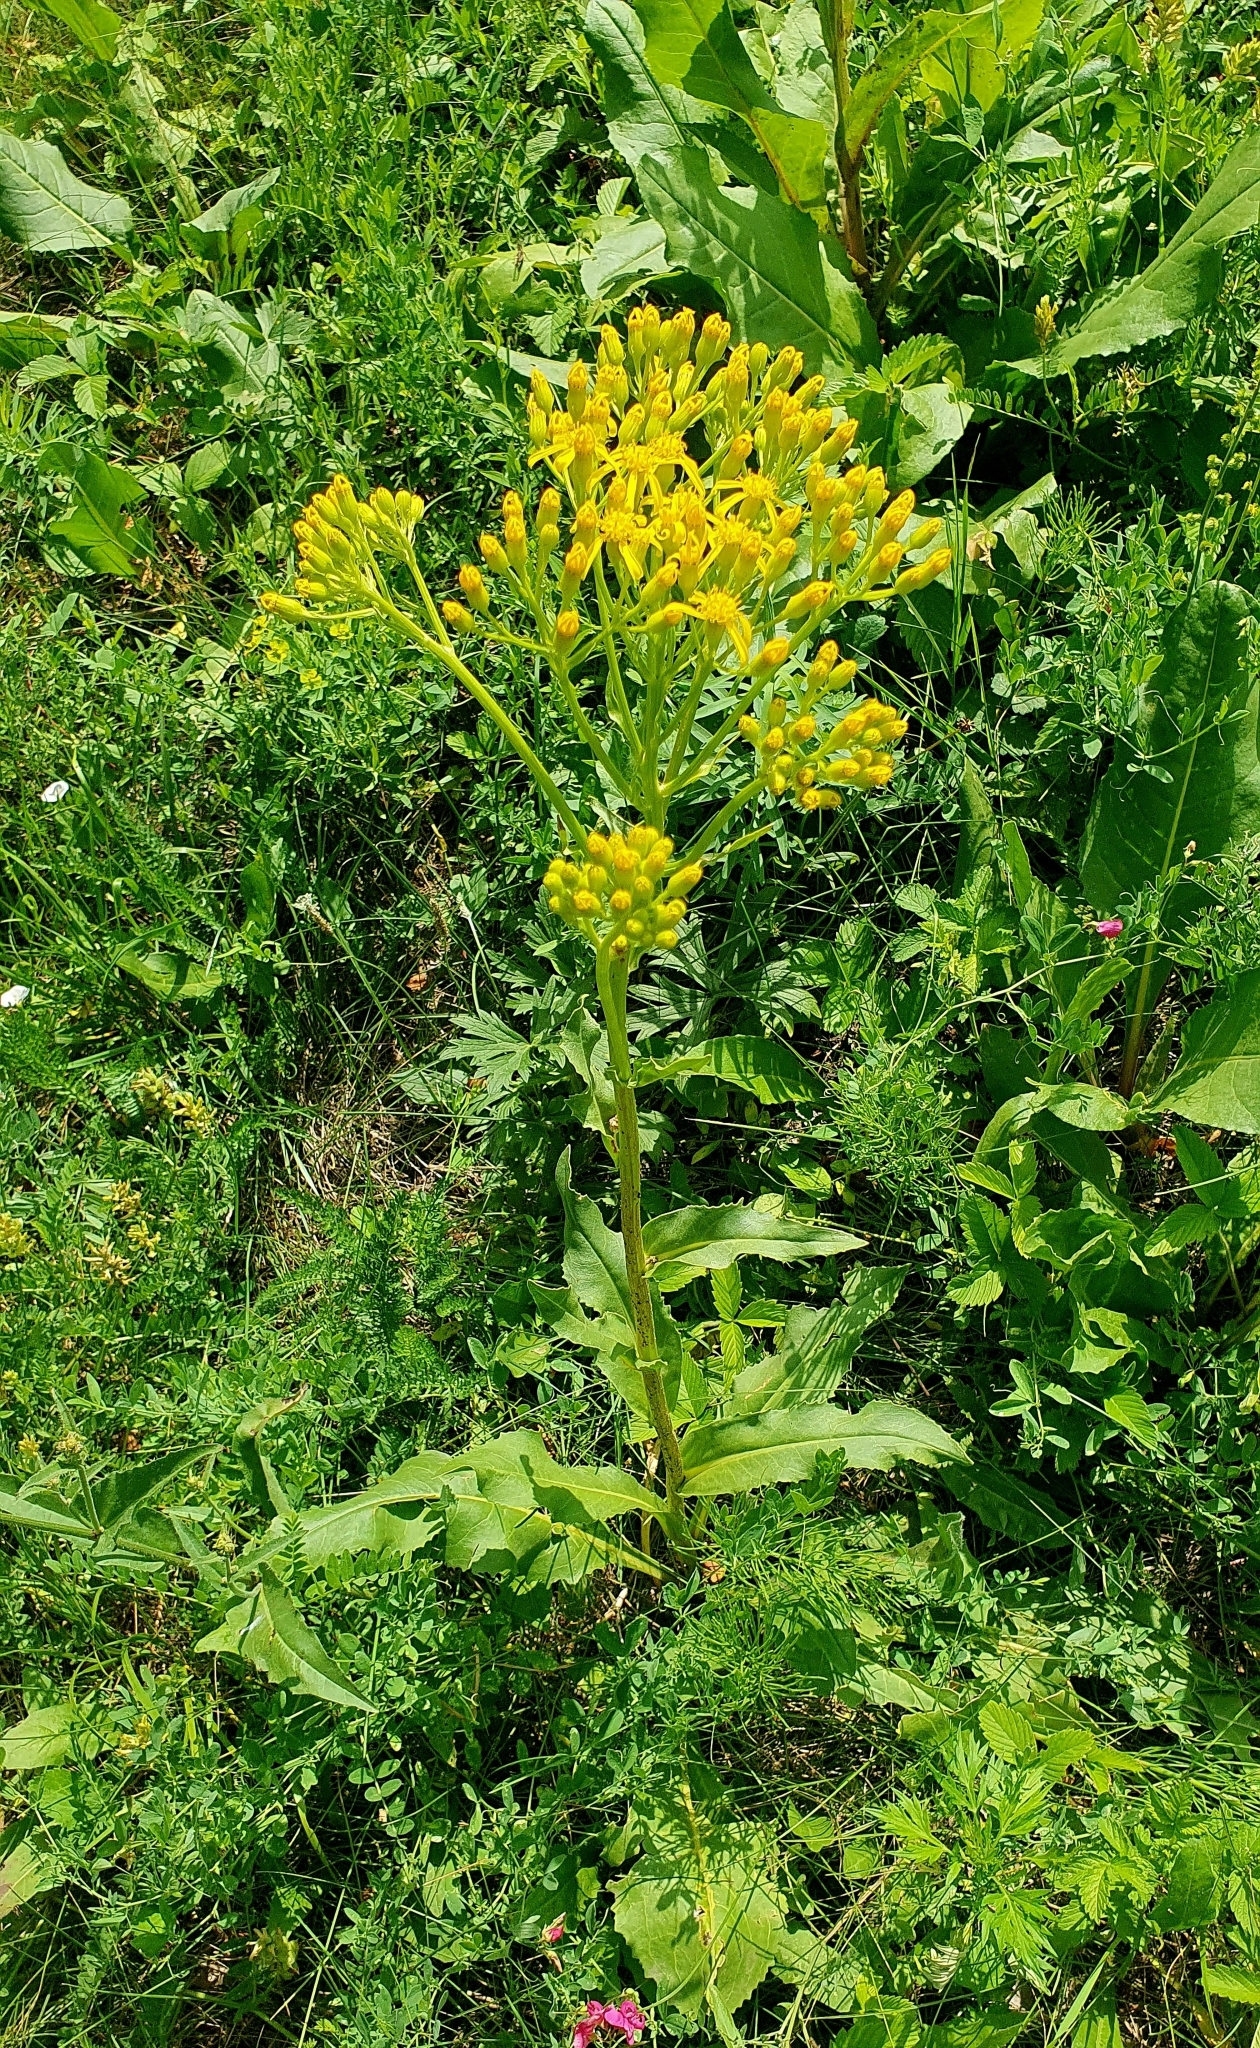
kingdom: Plantae
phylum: Tracheophyta
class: Magnoliopsida
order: Asterales
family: Asteraceae
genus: Senecio
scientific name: Senecio doria
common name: Golden ragwort
